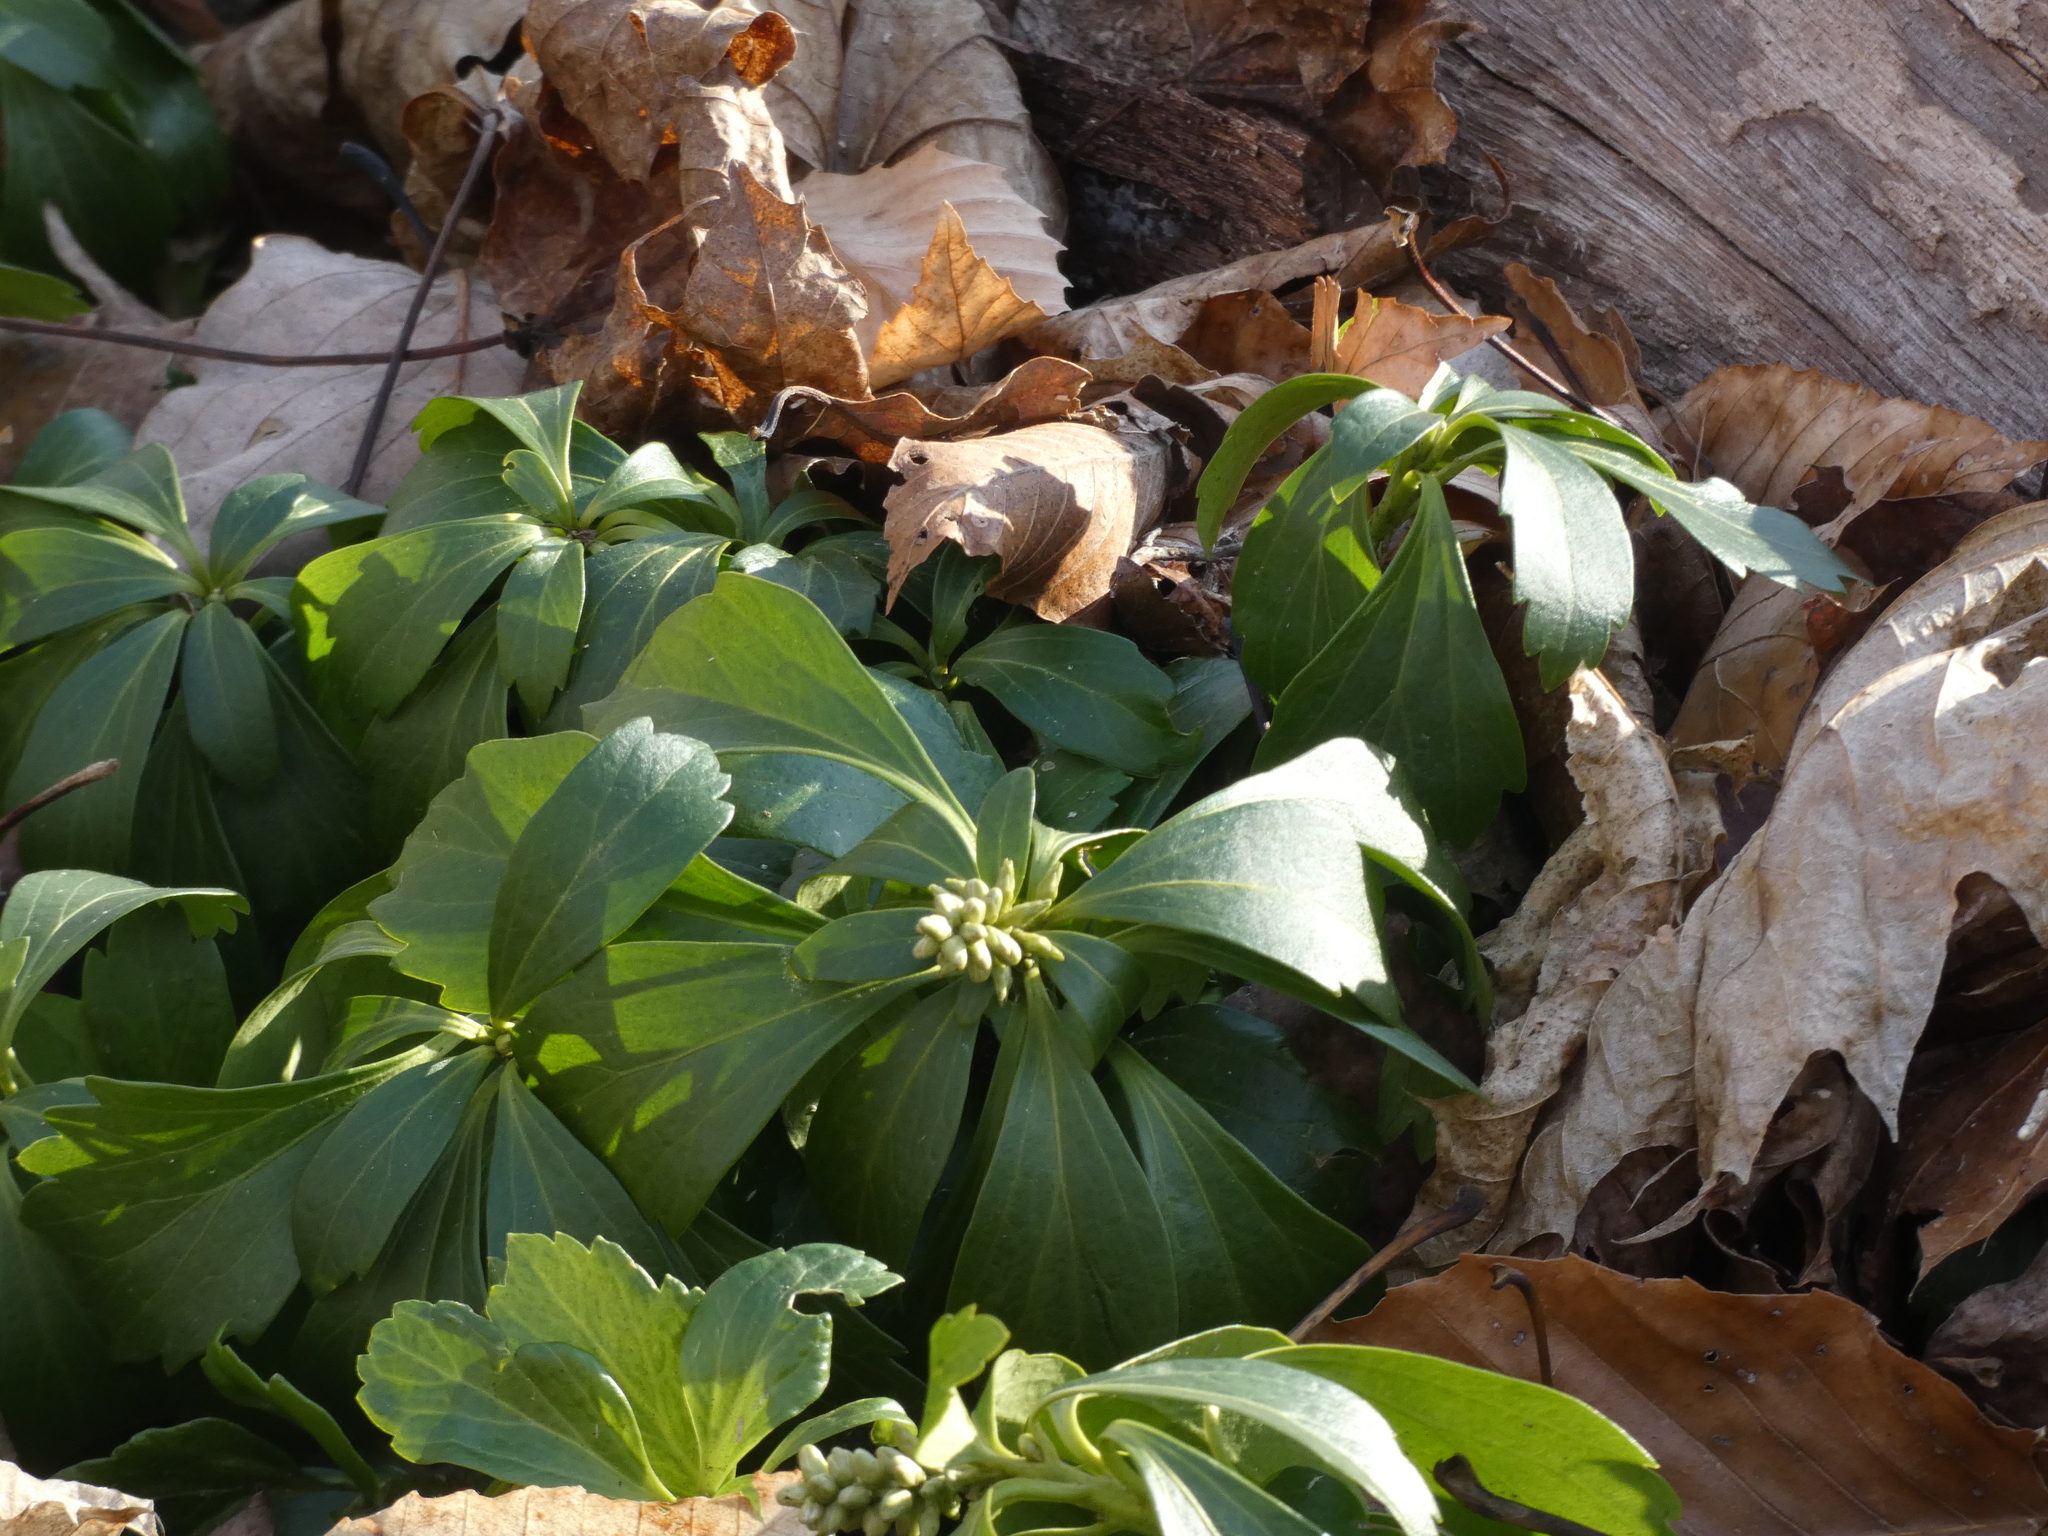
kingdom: Plantae
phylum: Tracheophyta
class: Magnoliopsida
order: Buxales
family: Buxaceae
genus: Pachysandra
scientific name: Pachysandra terminalis
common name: Japanese pachysandra
